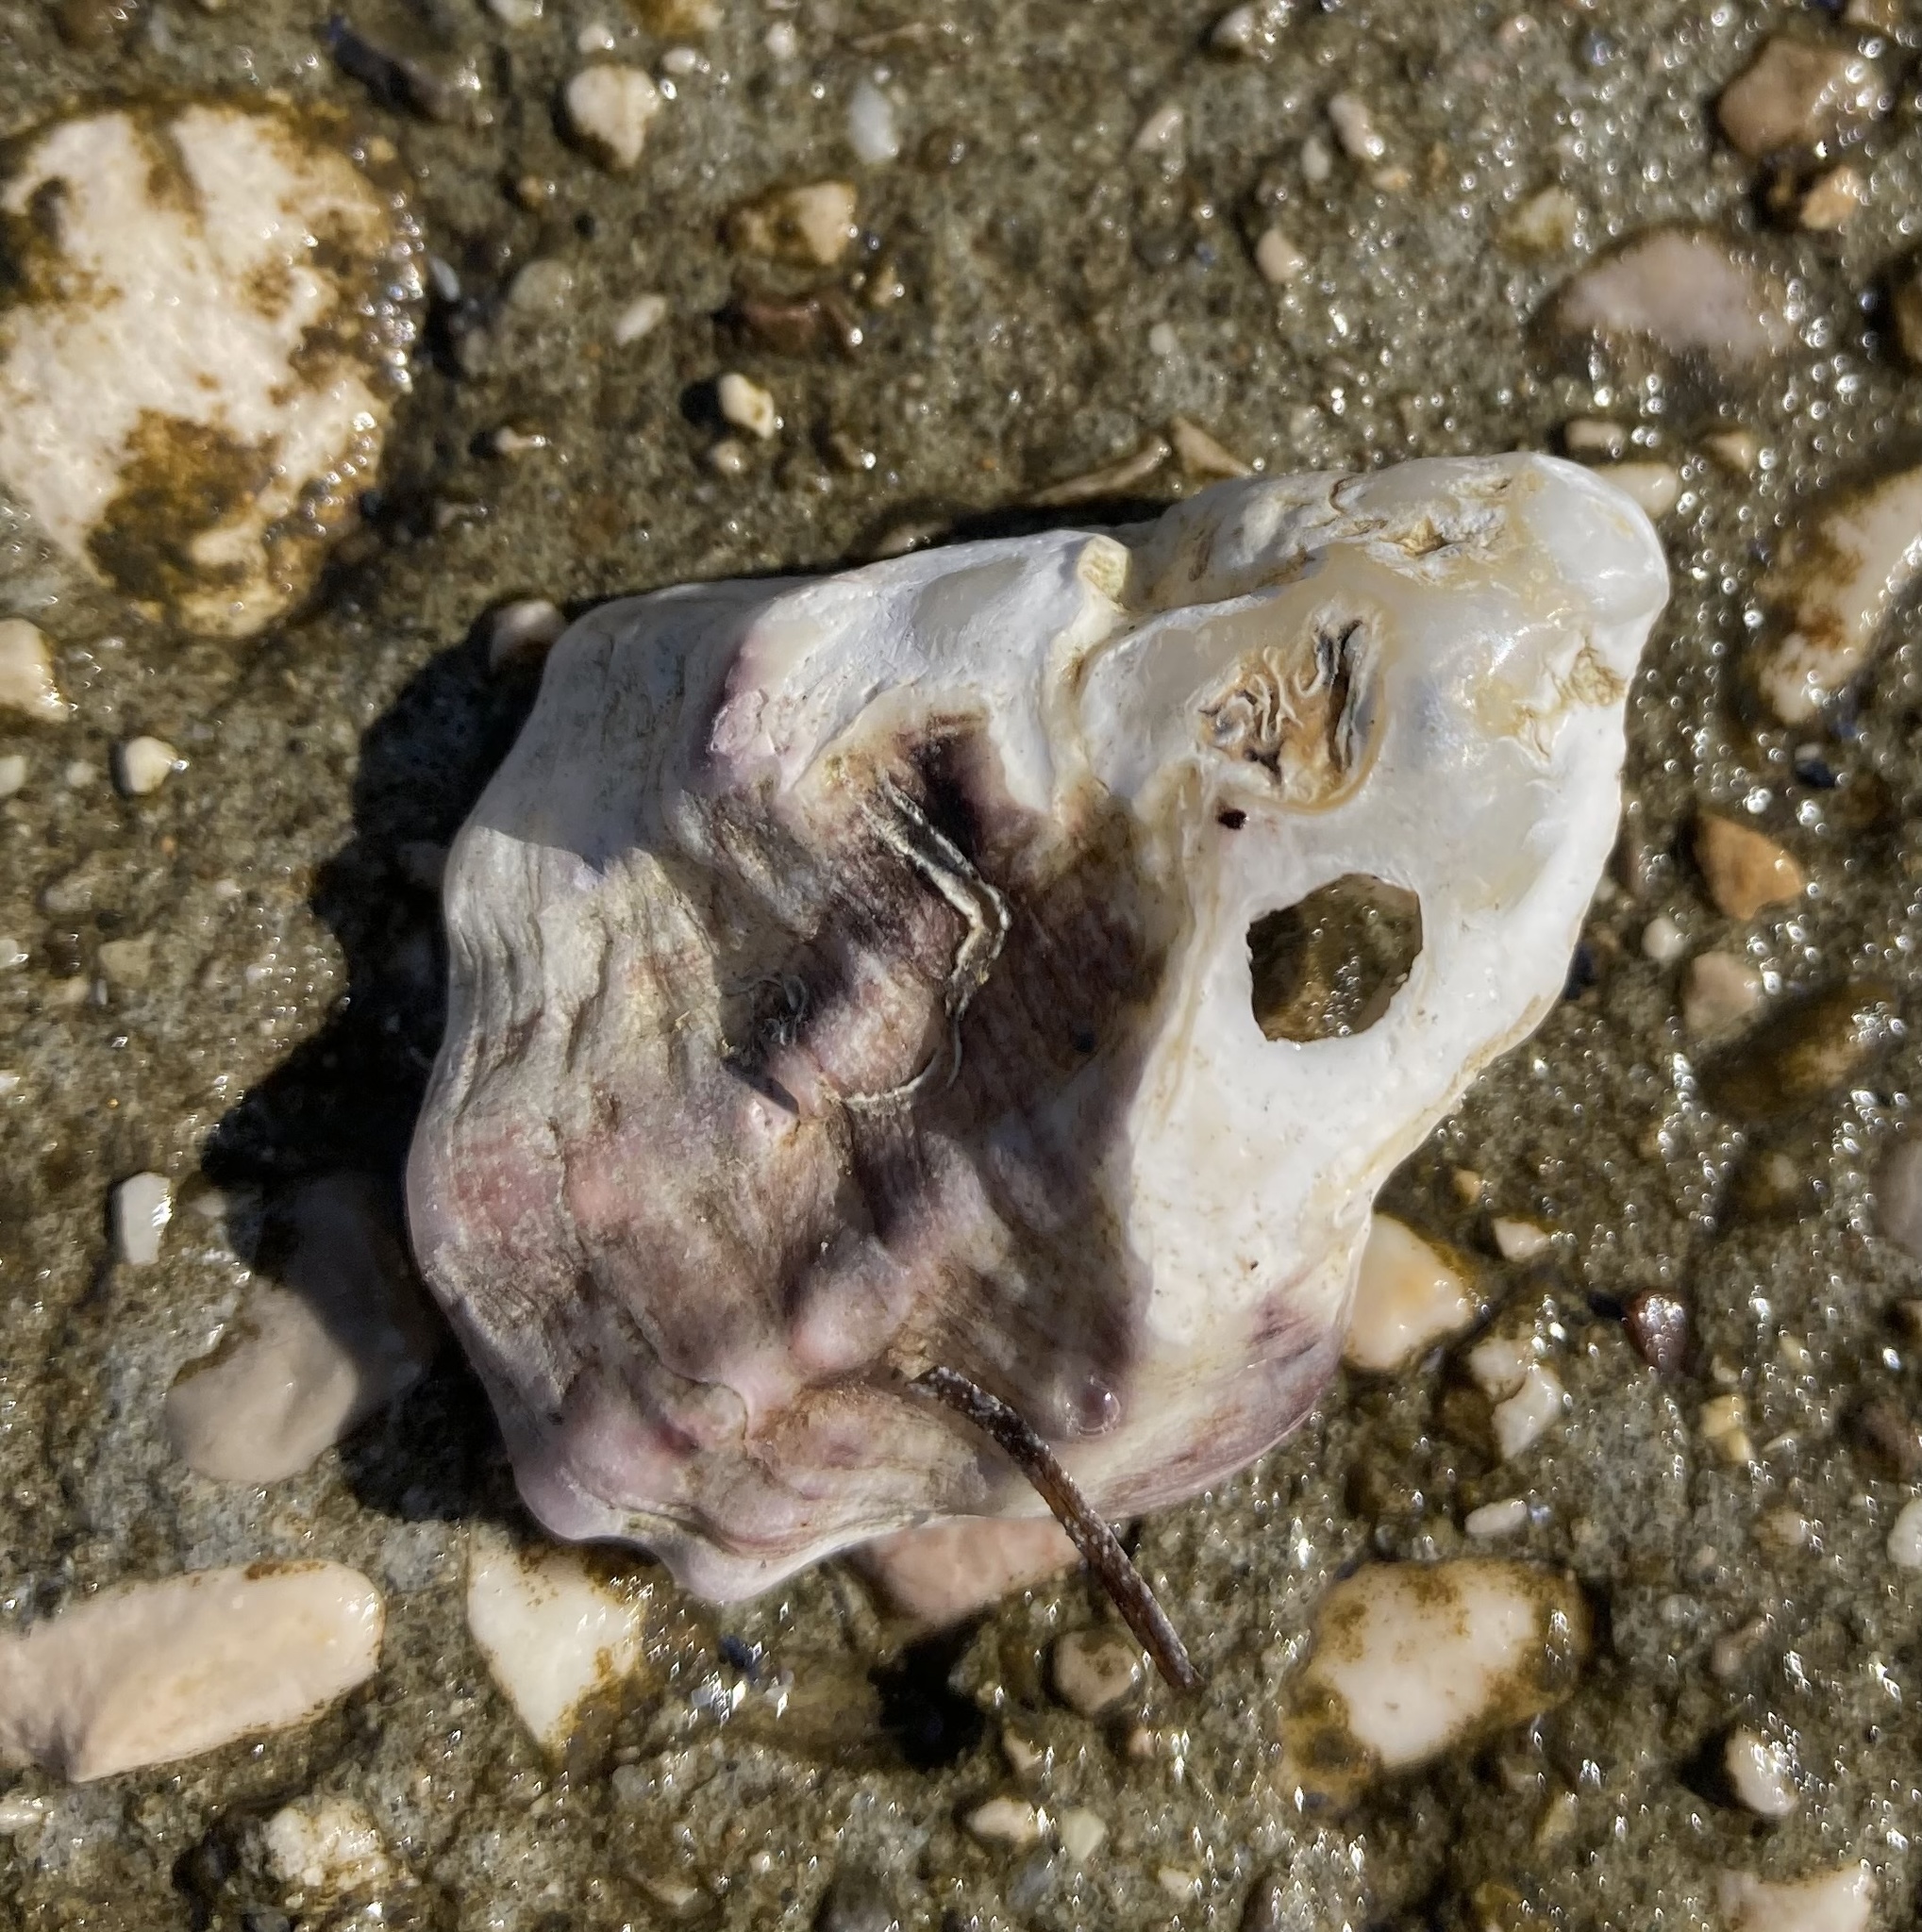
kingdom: Animalia
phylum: Mollusca
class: Bivalvia
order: Ostreida
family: Ostreidae
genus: Magallana
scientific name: Magallana gigas
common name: Pacific oyster
